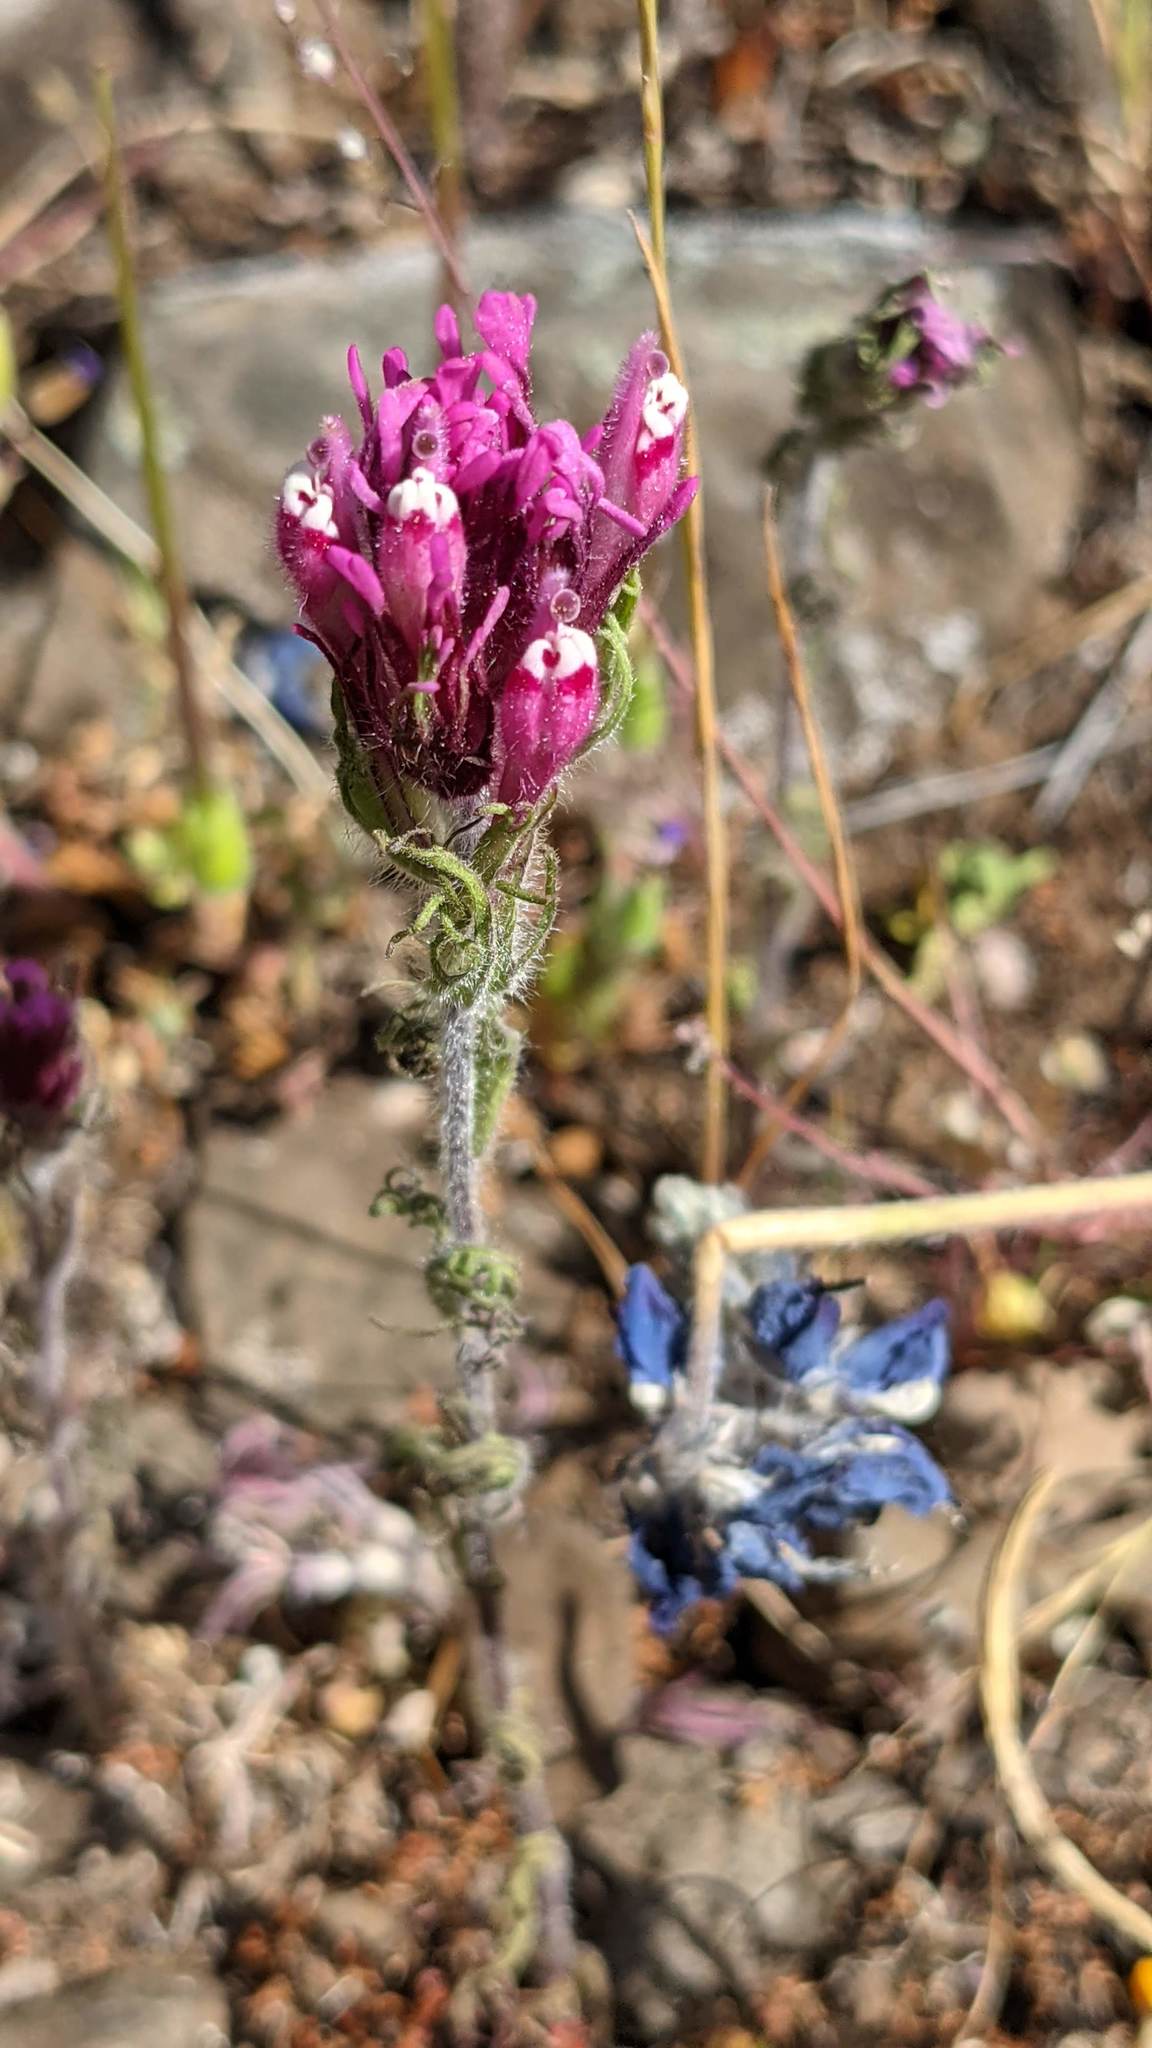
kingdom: Plantae
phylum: Tracheophyta
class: Magnoliopsida
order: Lamiales
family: Orobanchaceae
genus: Castilleja
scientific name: Castilleja exserta
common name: Purple owl-clover
